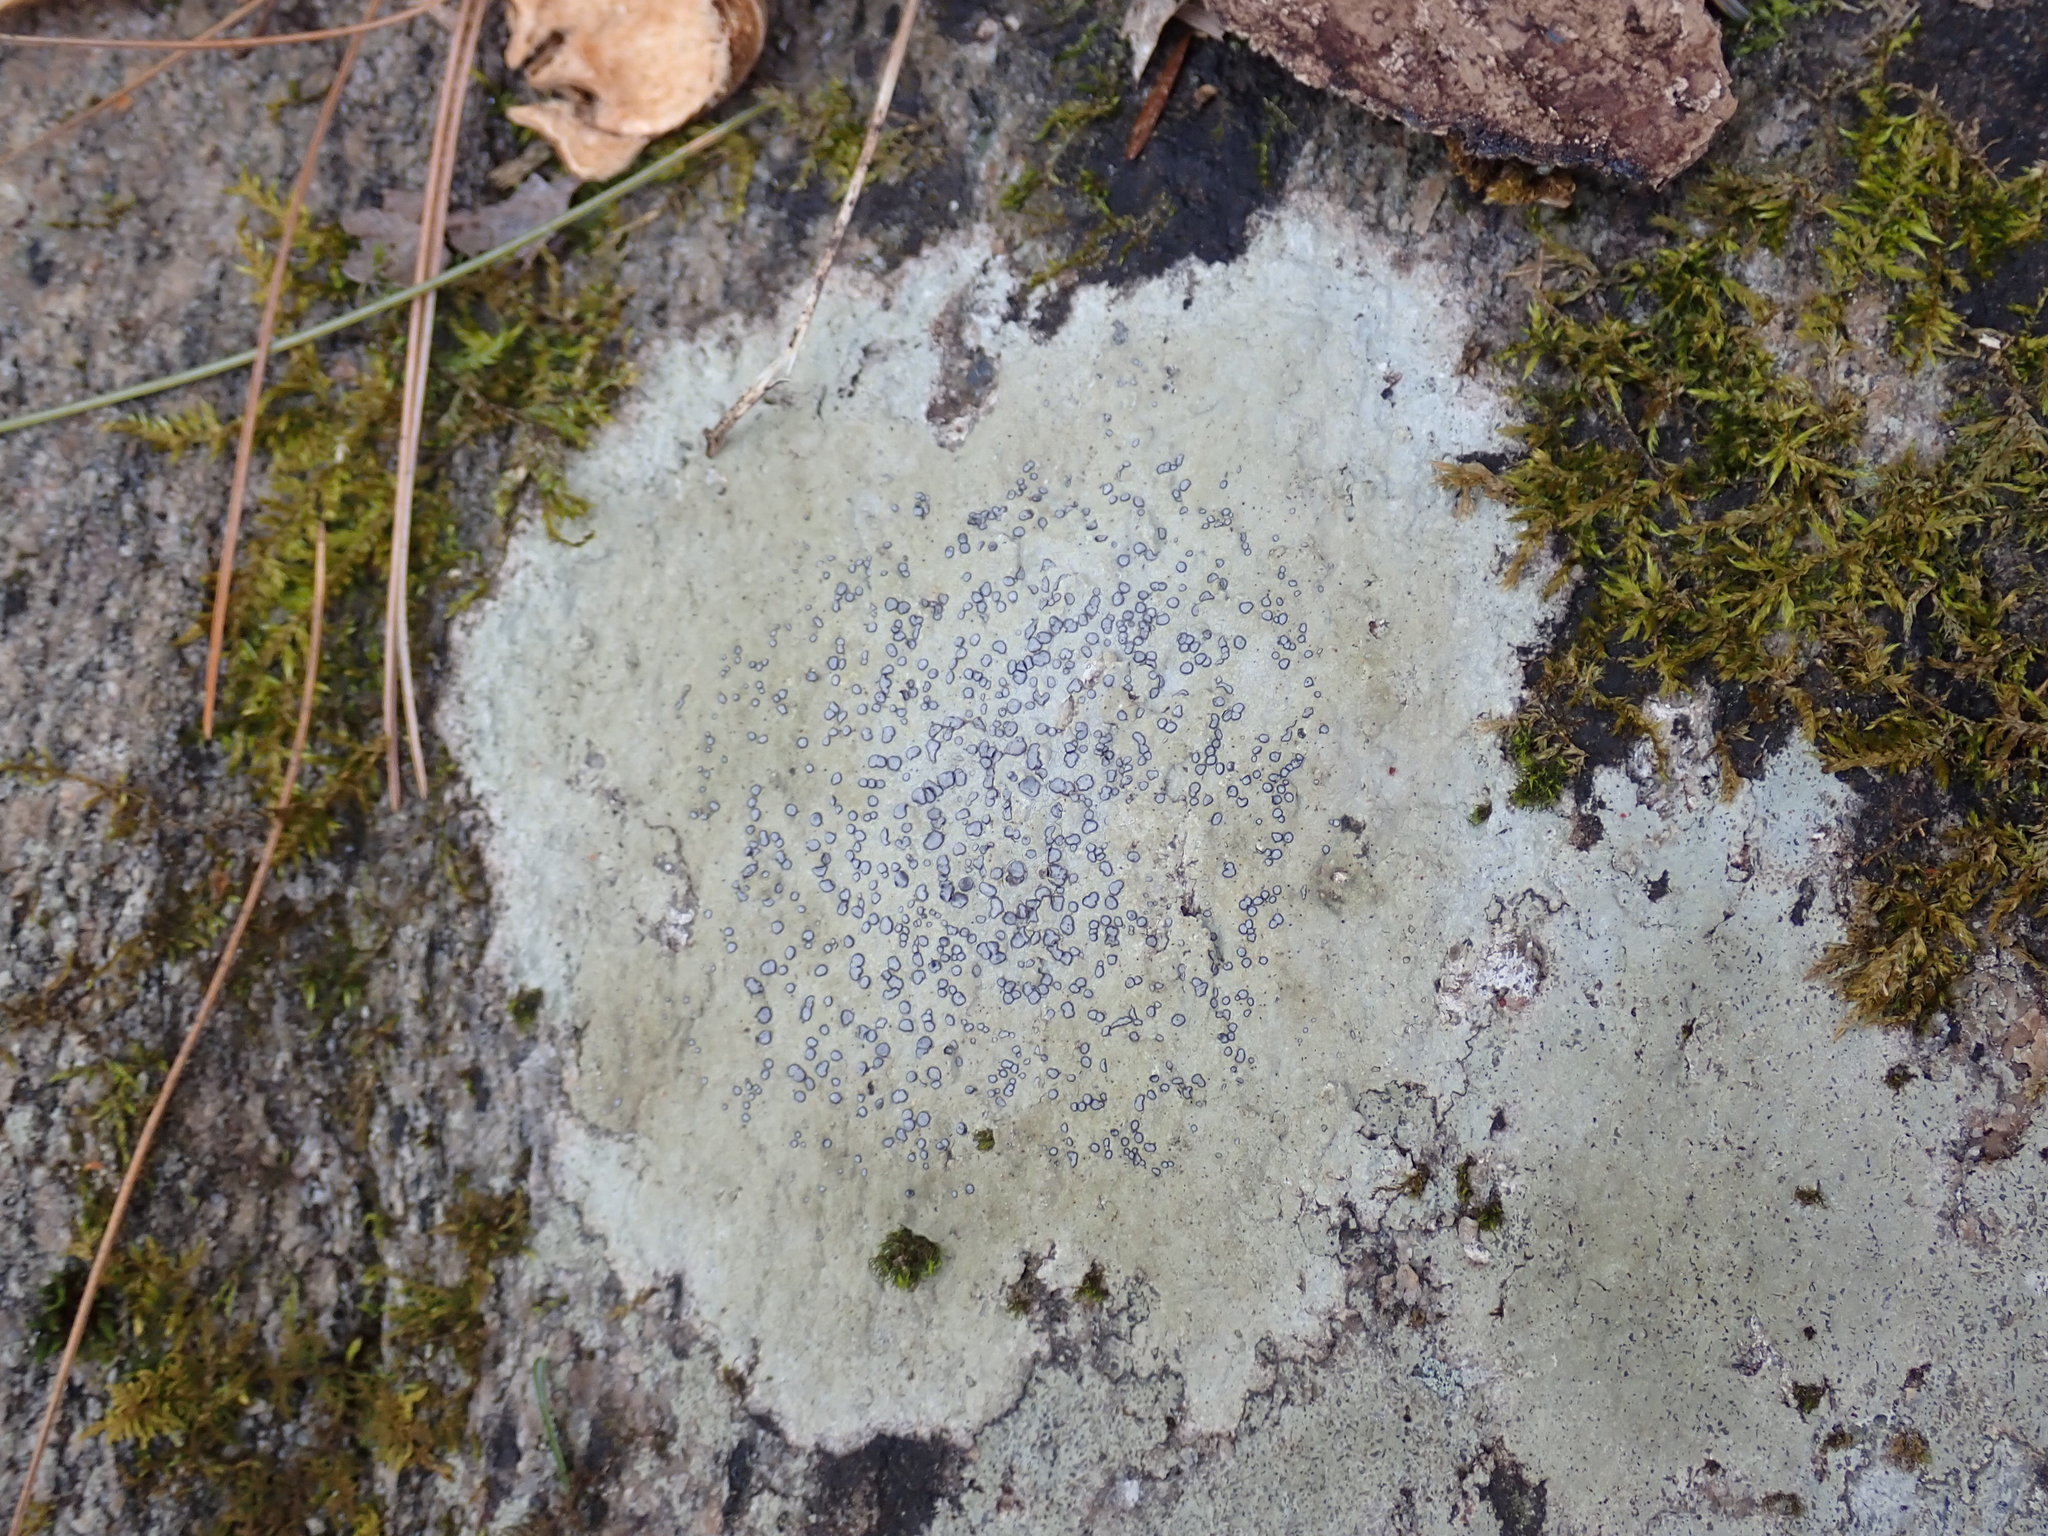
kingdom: Fungi
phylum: Ascomycota
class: Lecanoromycetes
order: Lecideales
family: Lecideaceae
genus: Porpidia
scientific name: Porpidia albocaerulescens
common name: Smokey-eyed boulder lichen
